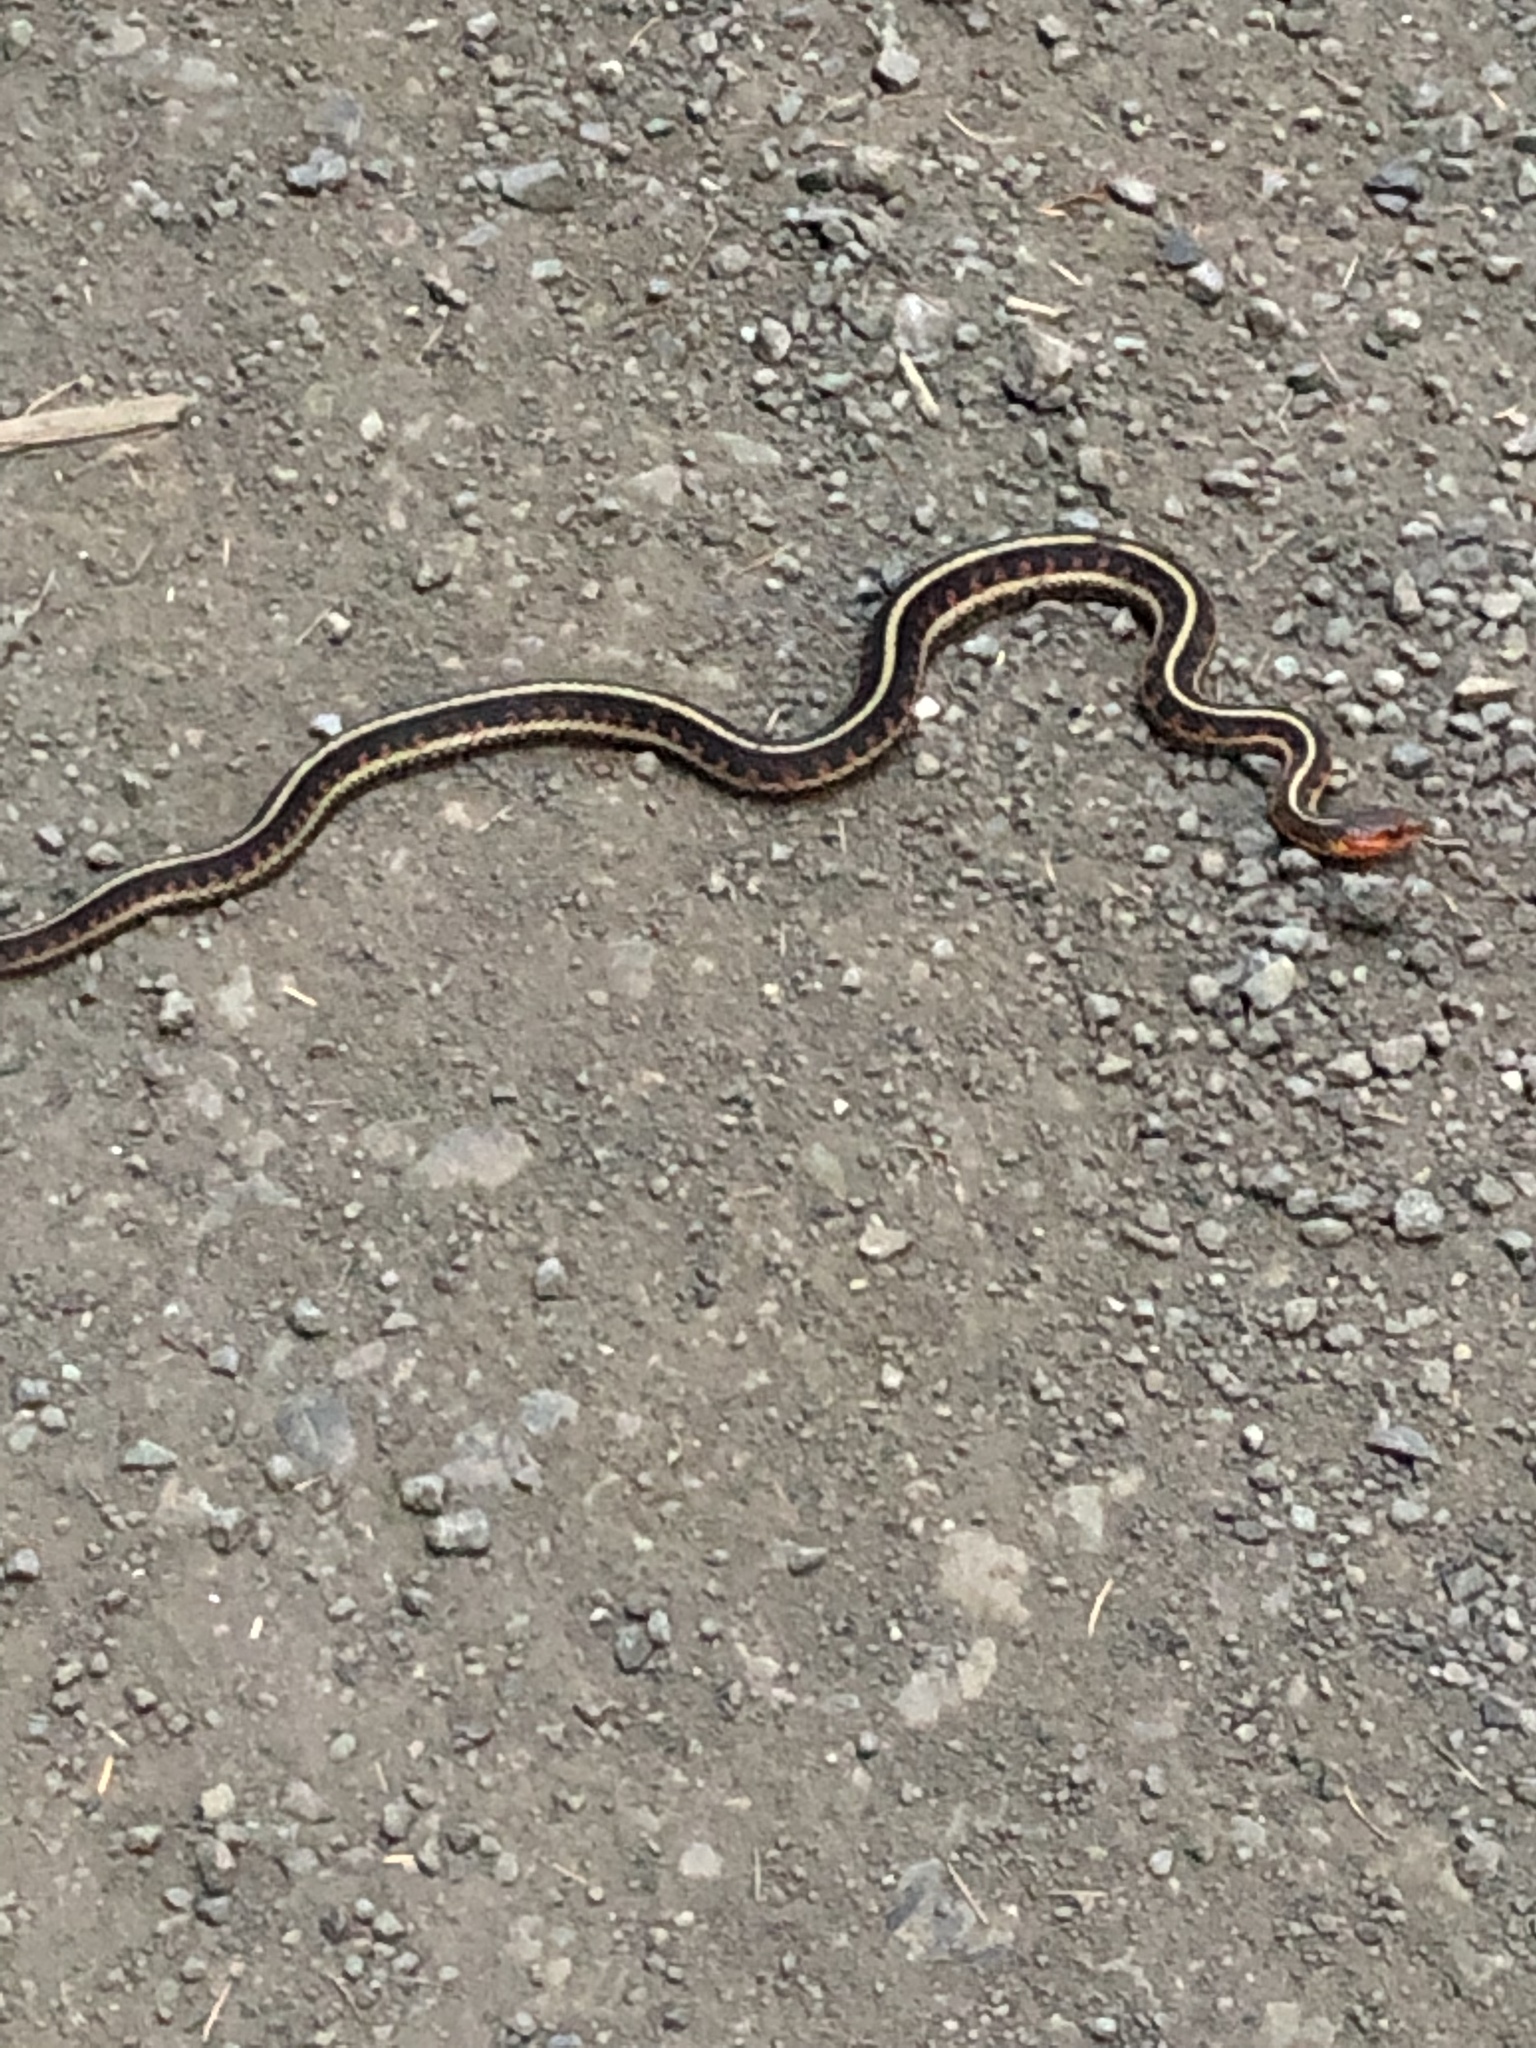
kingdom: Animalia
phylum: Chordata
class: Squamata
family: Colubridae
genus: Thamnophis
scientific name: Thamnophis sirtalis
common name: Common garter snake
